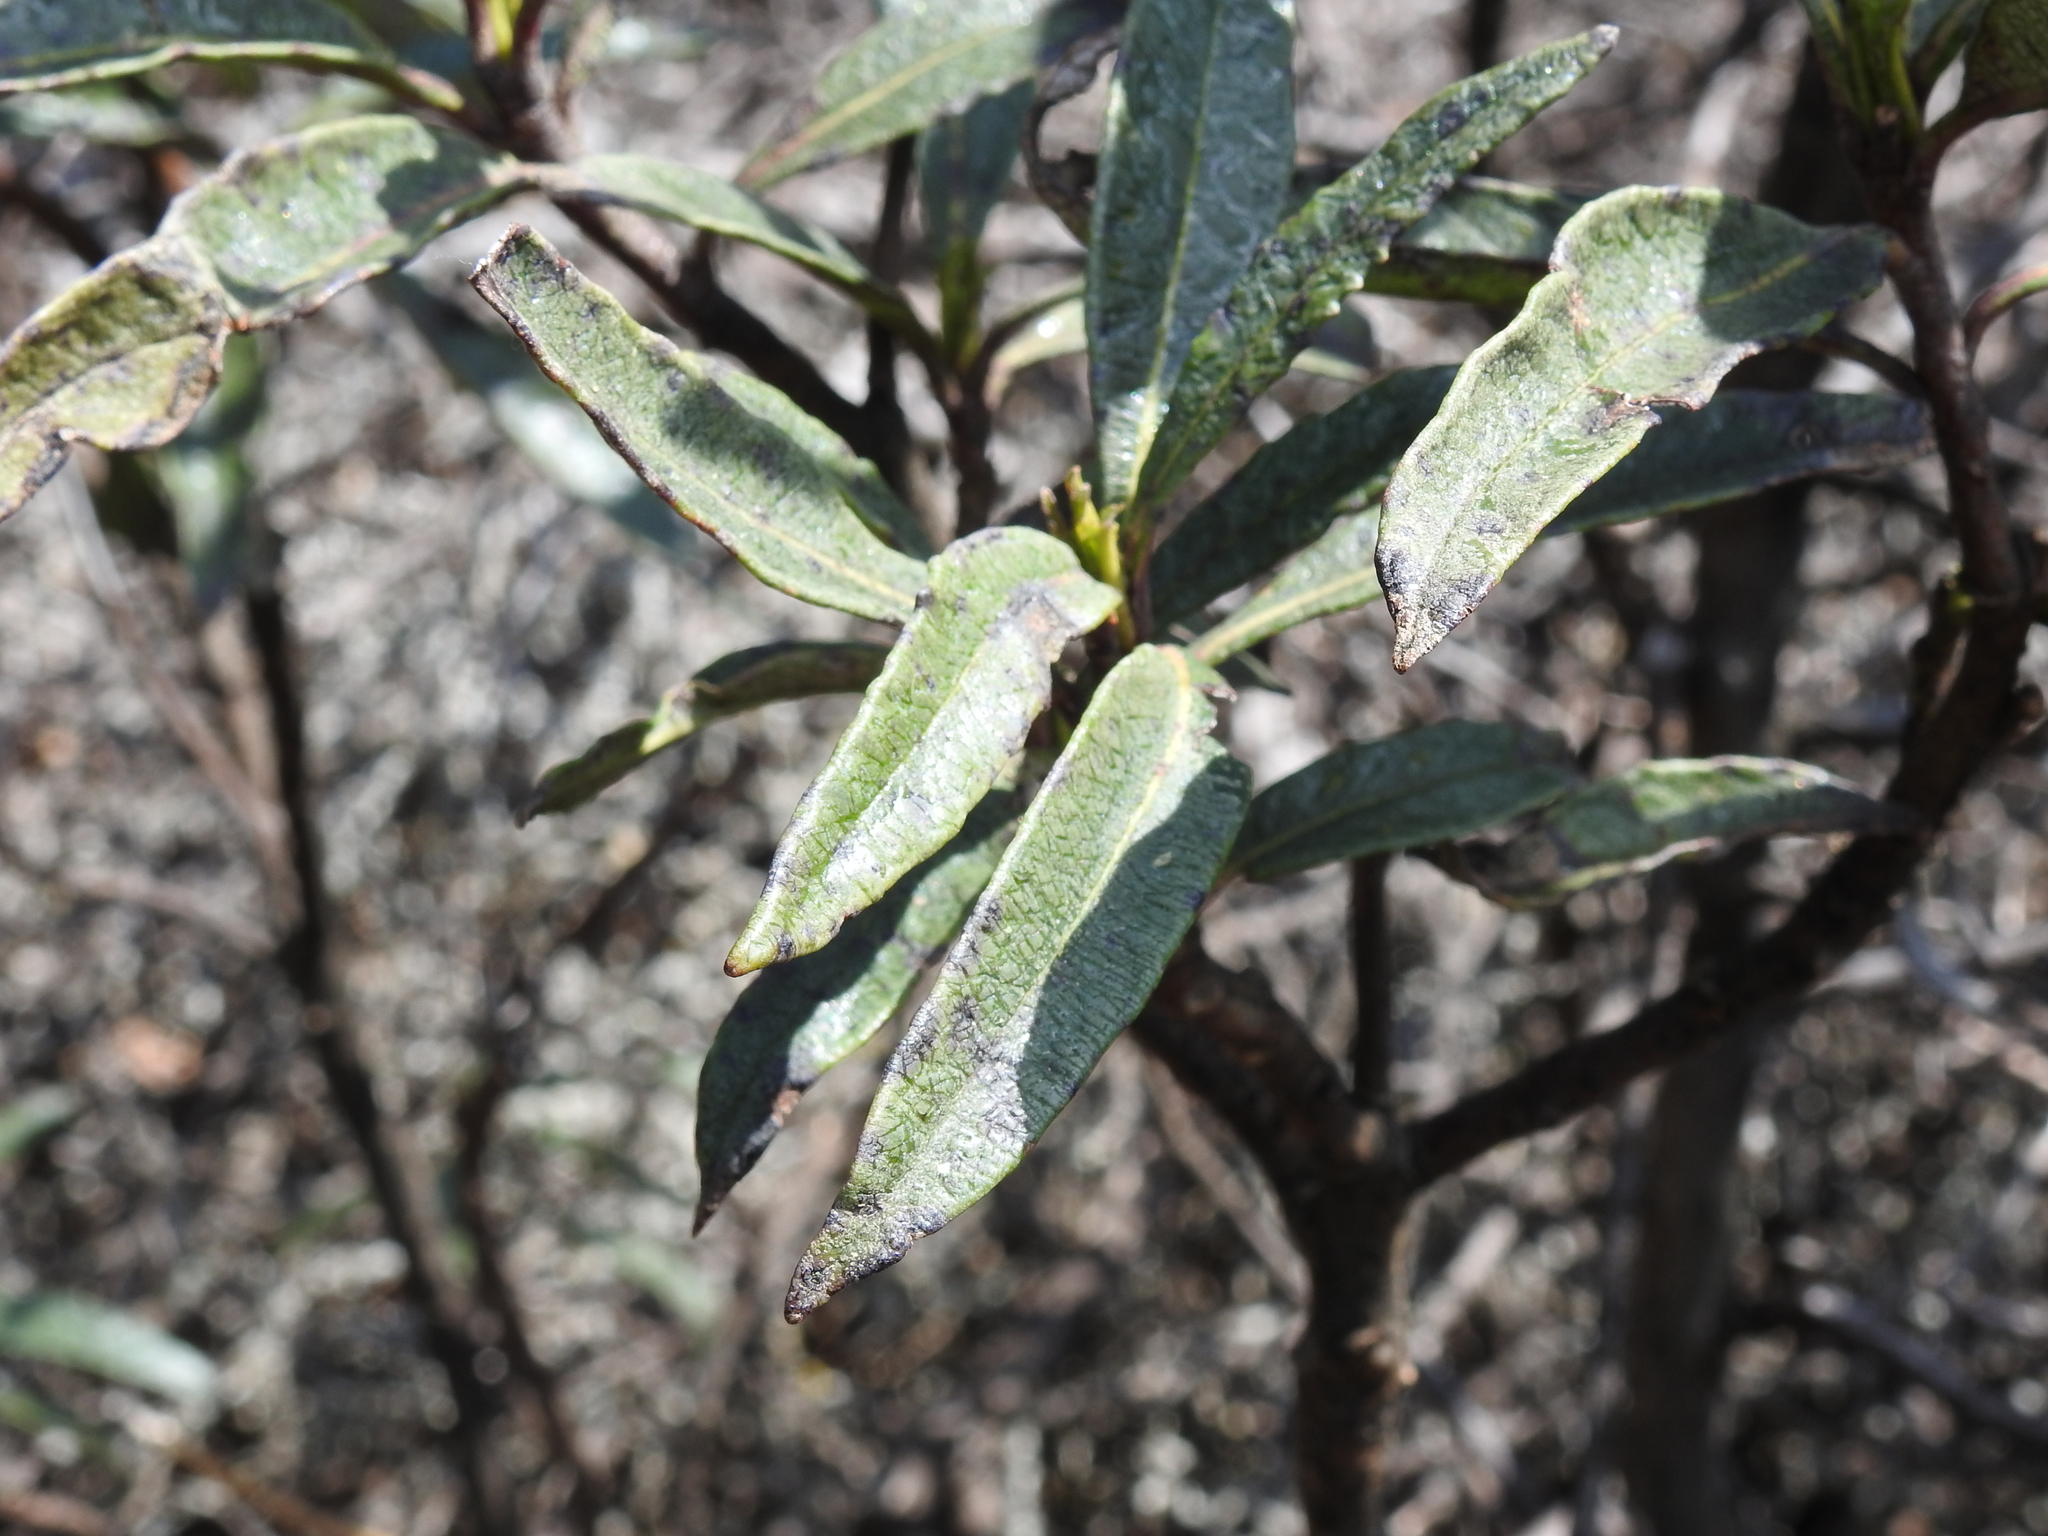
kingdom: Plantae
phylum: Tracheophyta
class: Magnoliopsida
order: Boraginales
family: Namaceae
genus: Eriodictyon
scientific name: Eriodictyon californicum
